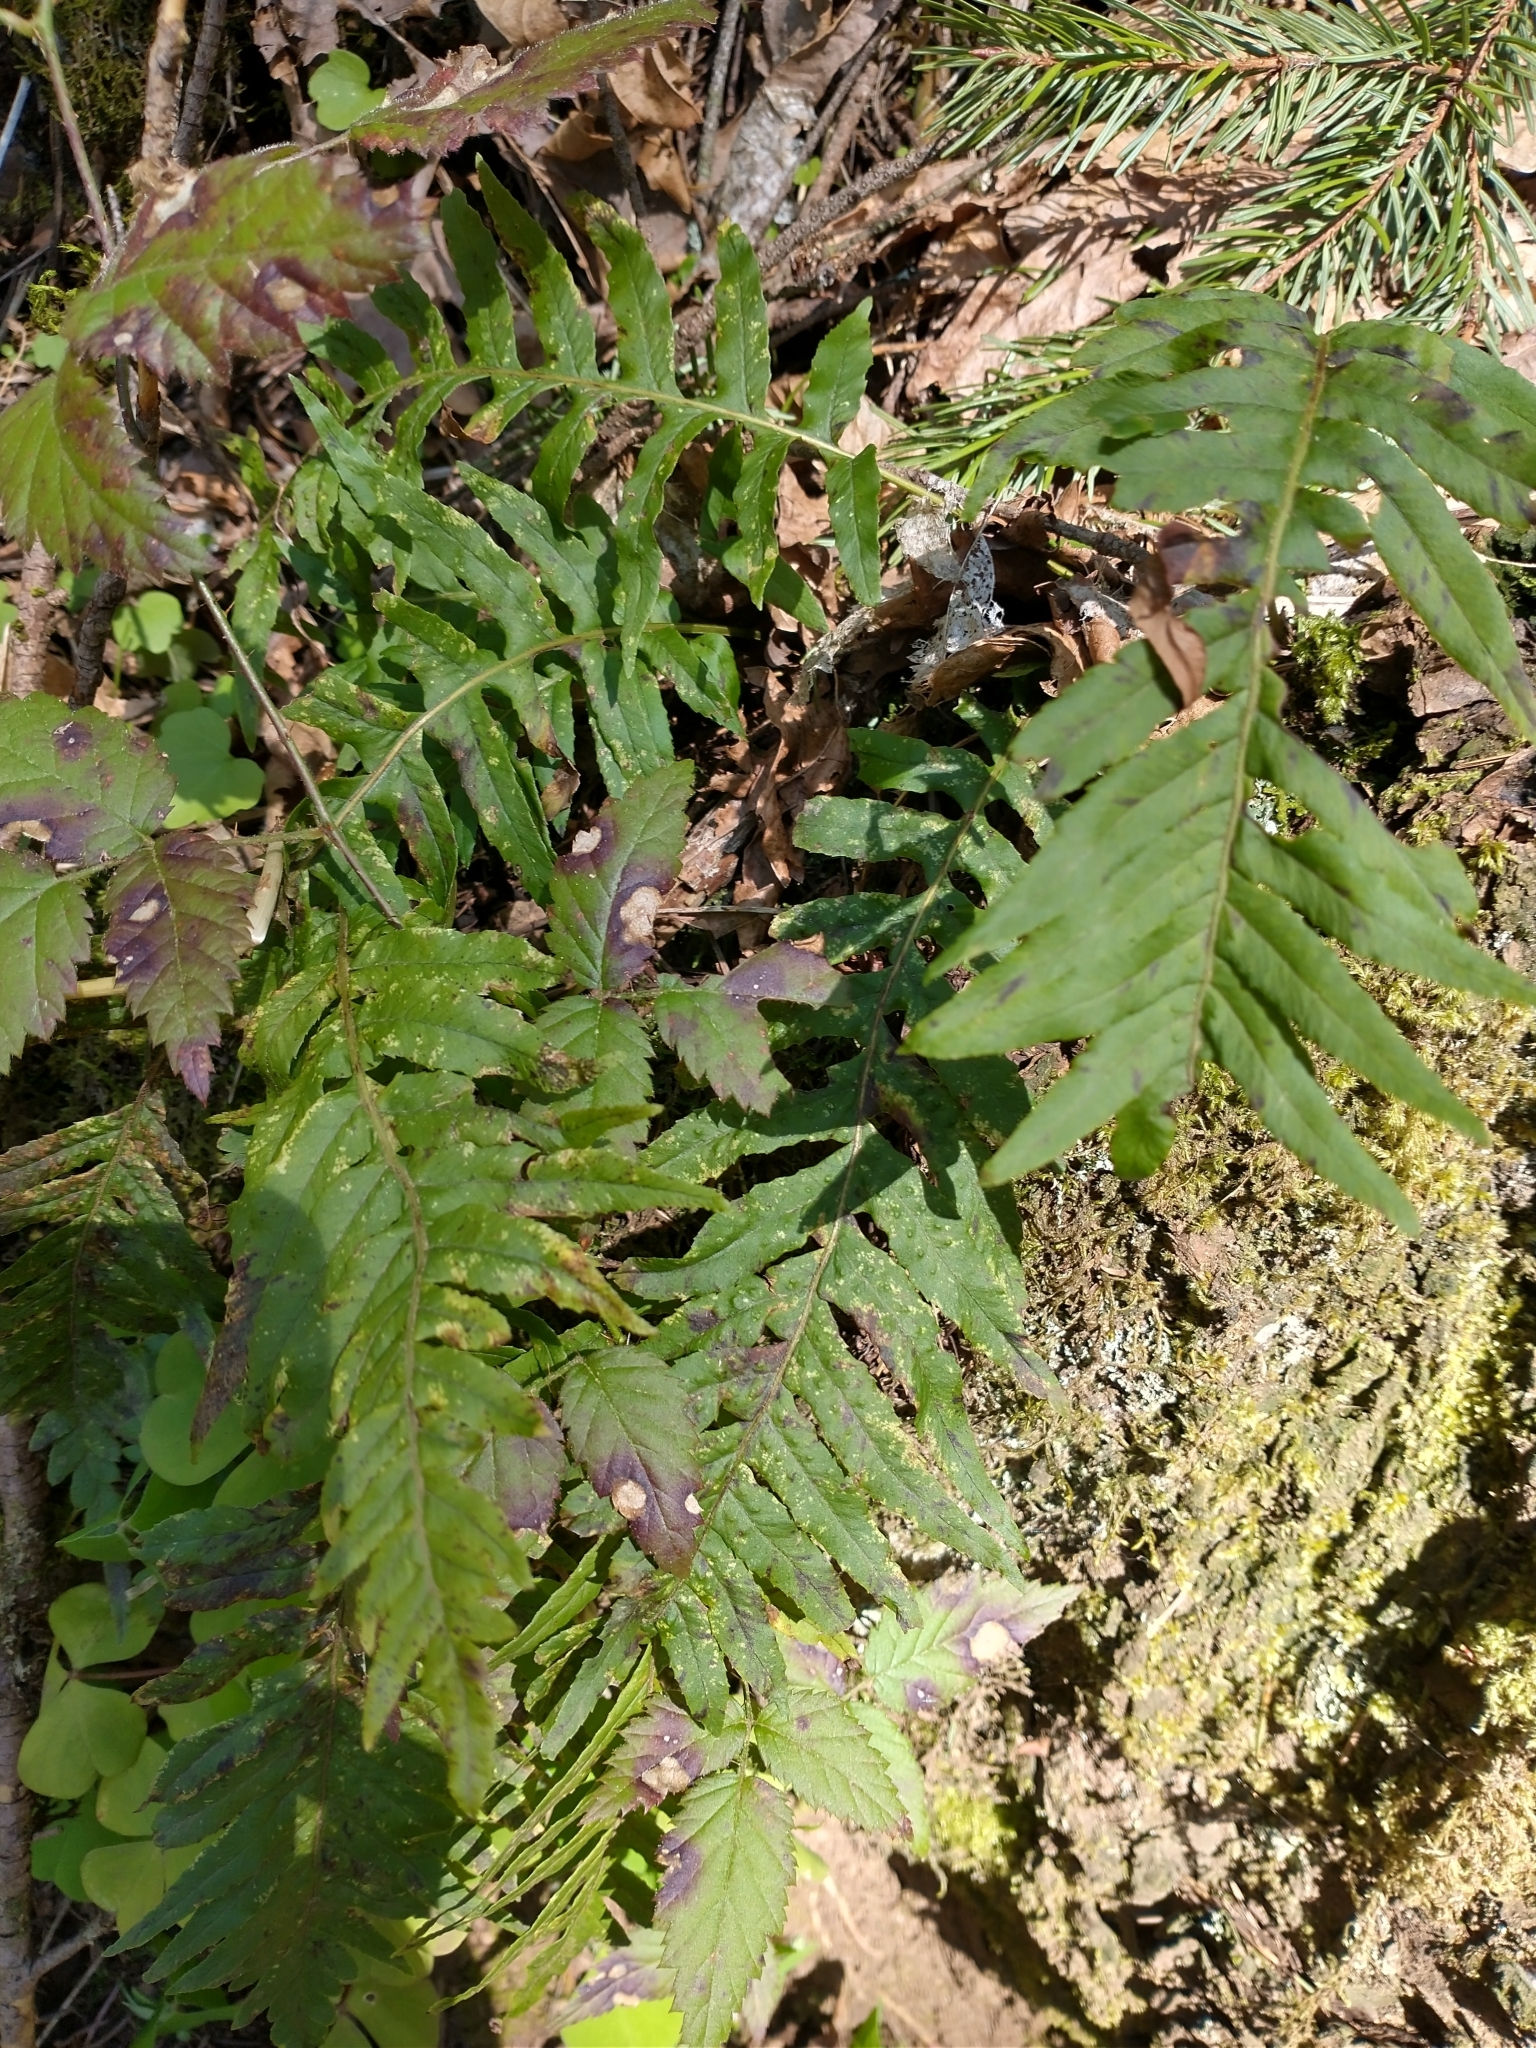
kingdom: Plantae
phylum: Tracheophyta
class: Polypodiopsida
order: Polypodiales
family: Polypodiaceae
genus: Polypodium
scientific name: Polypodium glycyrrhiza
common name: Licorice fern
